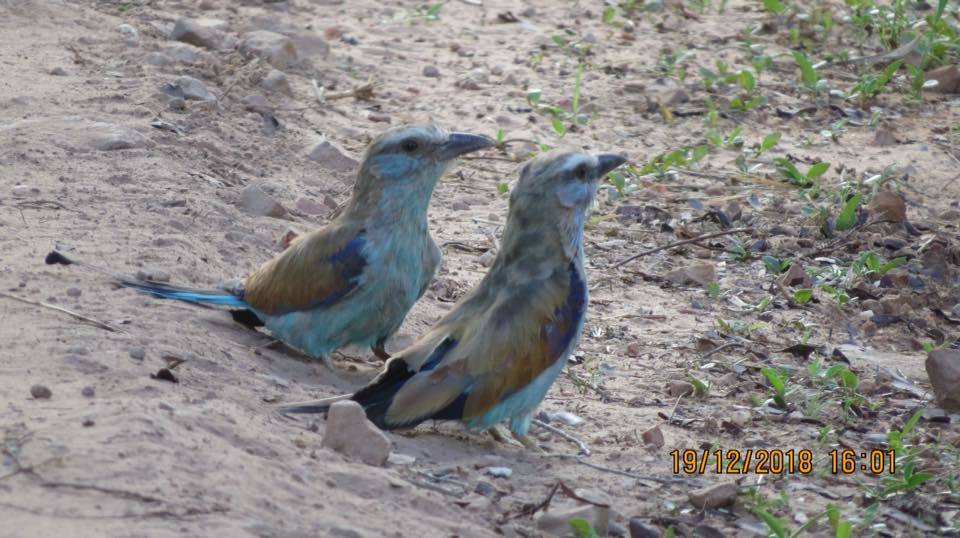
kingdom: Animalia
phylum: Chordata
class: Aves
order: Coraciiformes
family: Coraciidae
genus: Coracias
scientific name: Coracias spatulatus
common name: Racket-tailed roller
